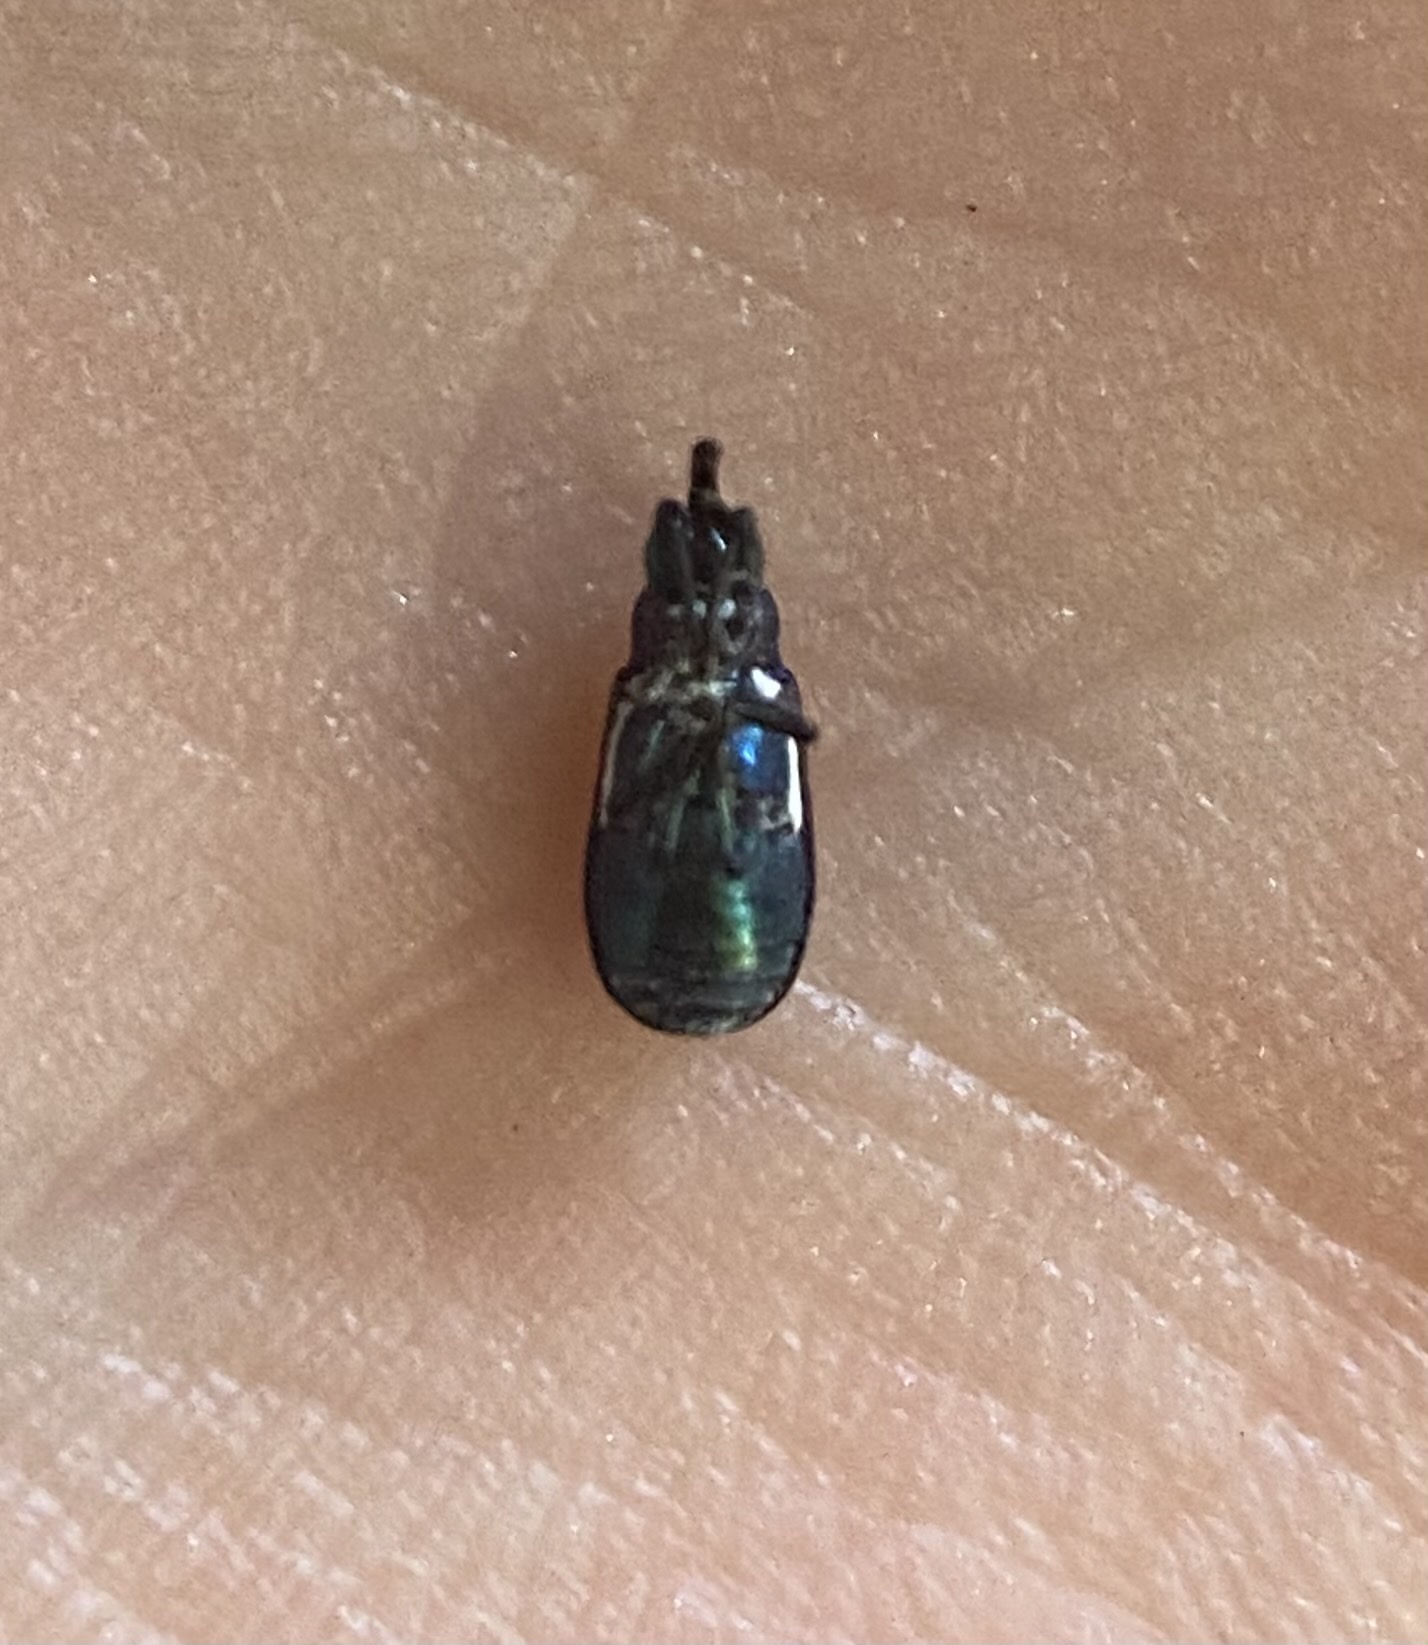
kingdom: Animalia
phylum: Arthropoda
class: Insecta
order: Coleoptera
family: Curculionidae
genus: Magdalis
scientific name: Magdalis lecontei
